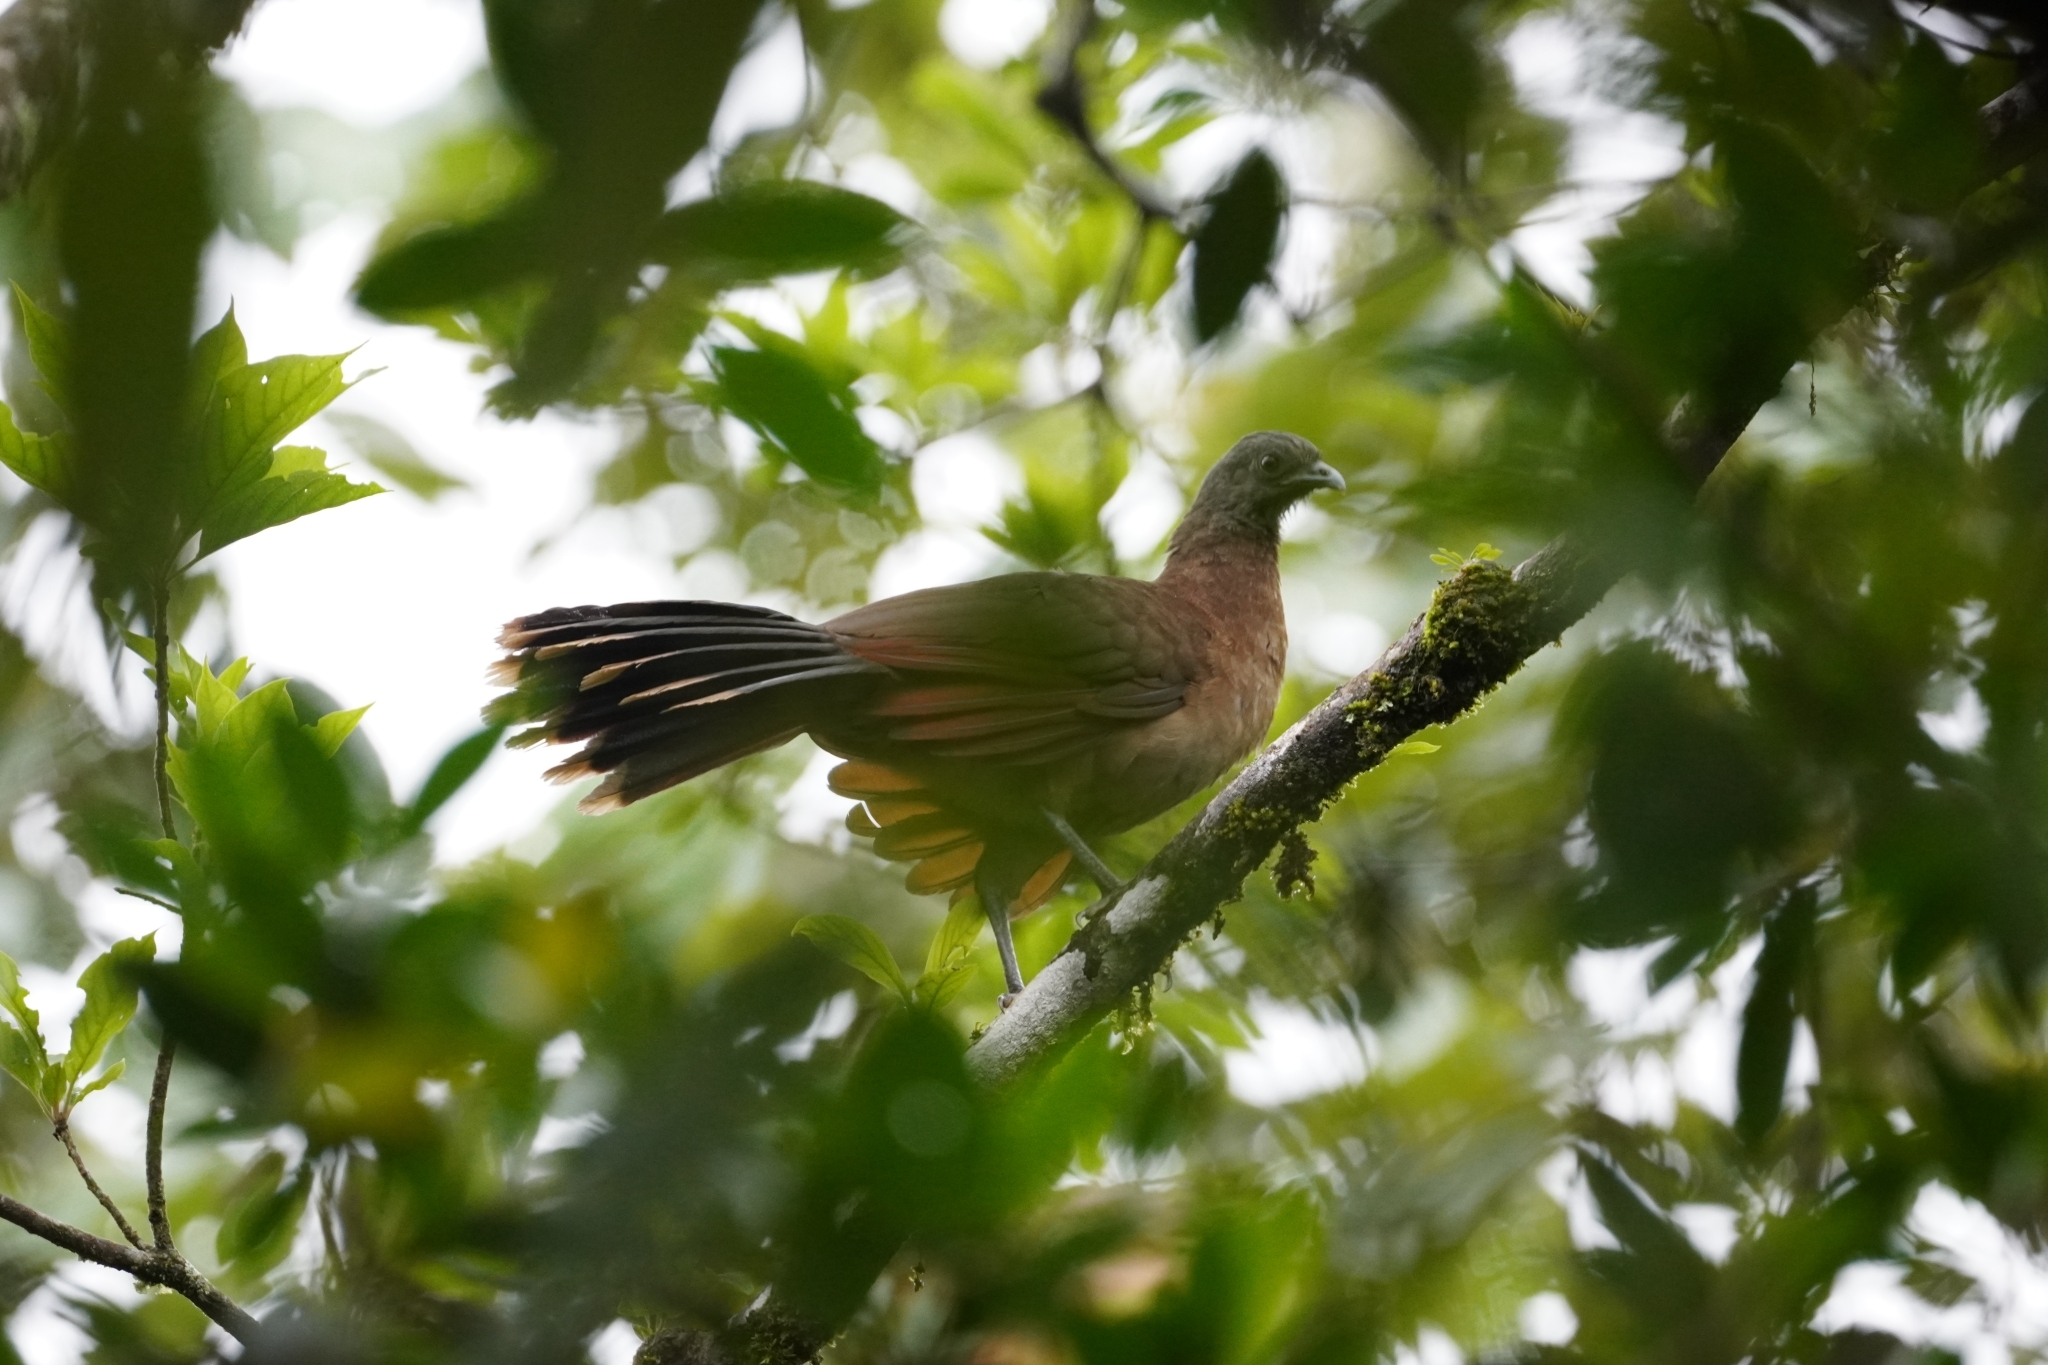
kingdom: Animalia
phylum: Chordata
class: Aves
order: Galliformes
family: Cracidae
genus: Ortalis
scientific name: Ortalis cinereiceps
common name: Grey-headed chachalaca
